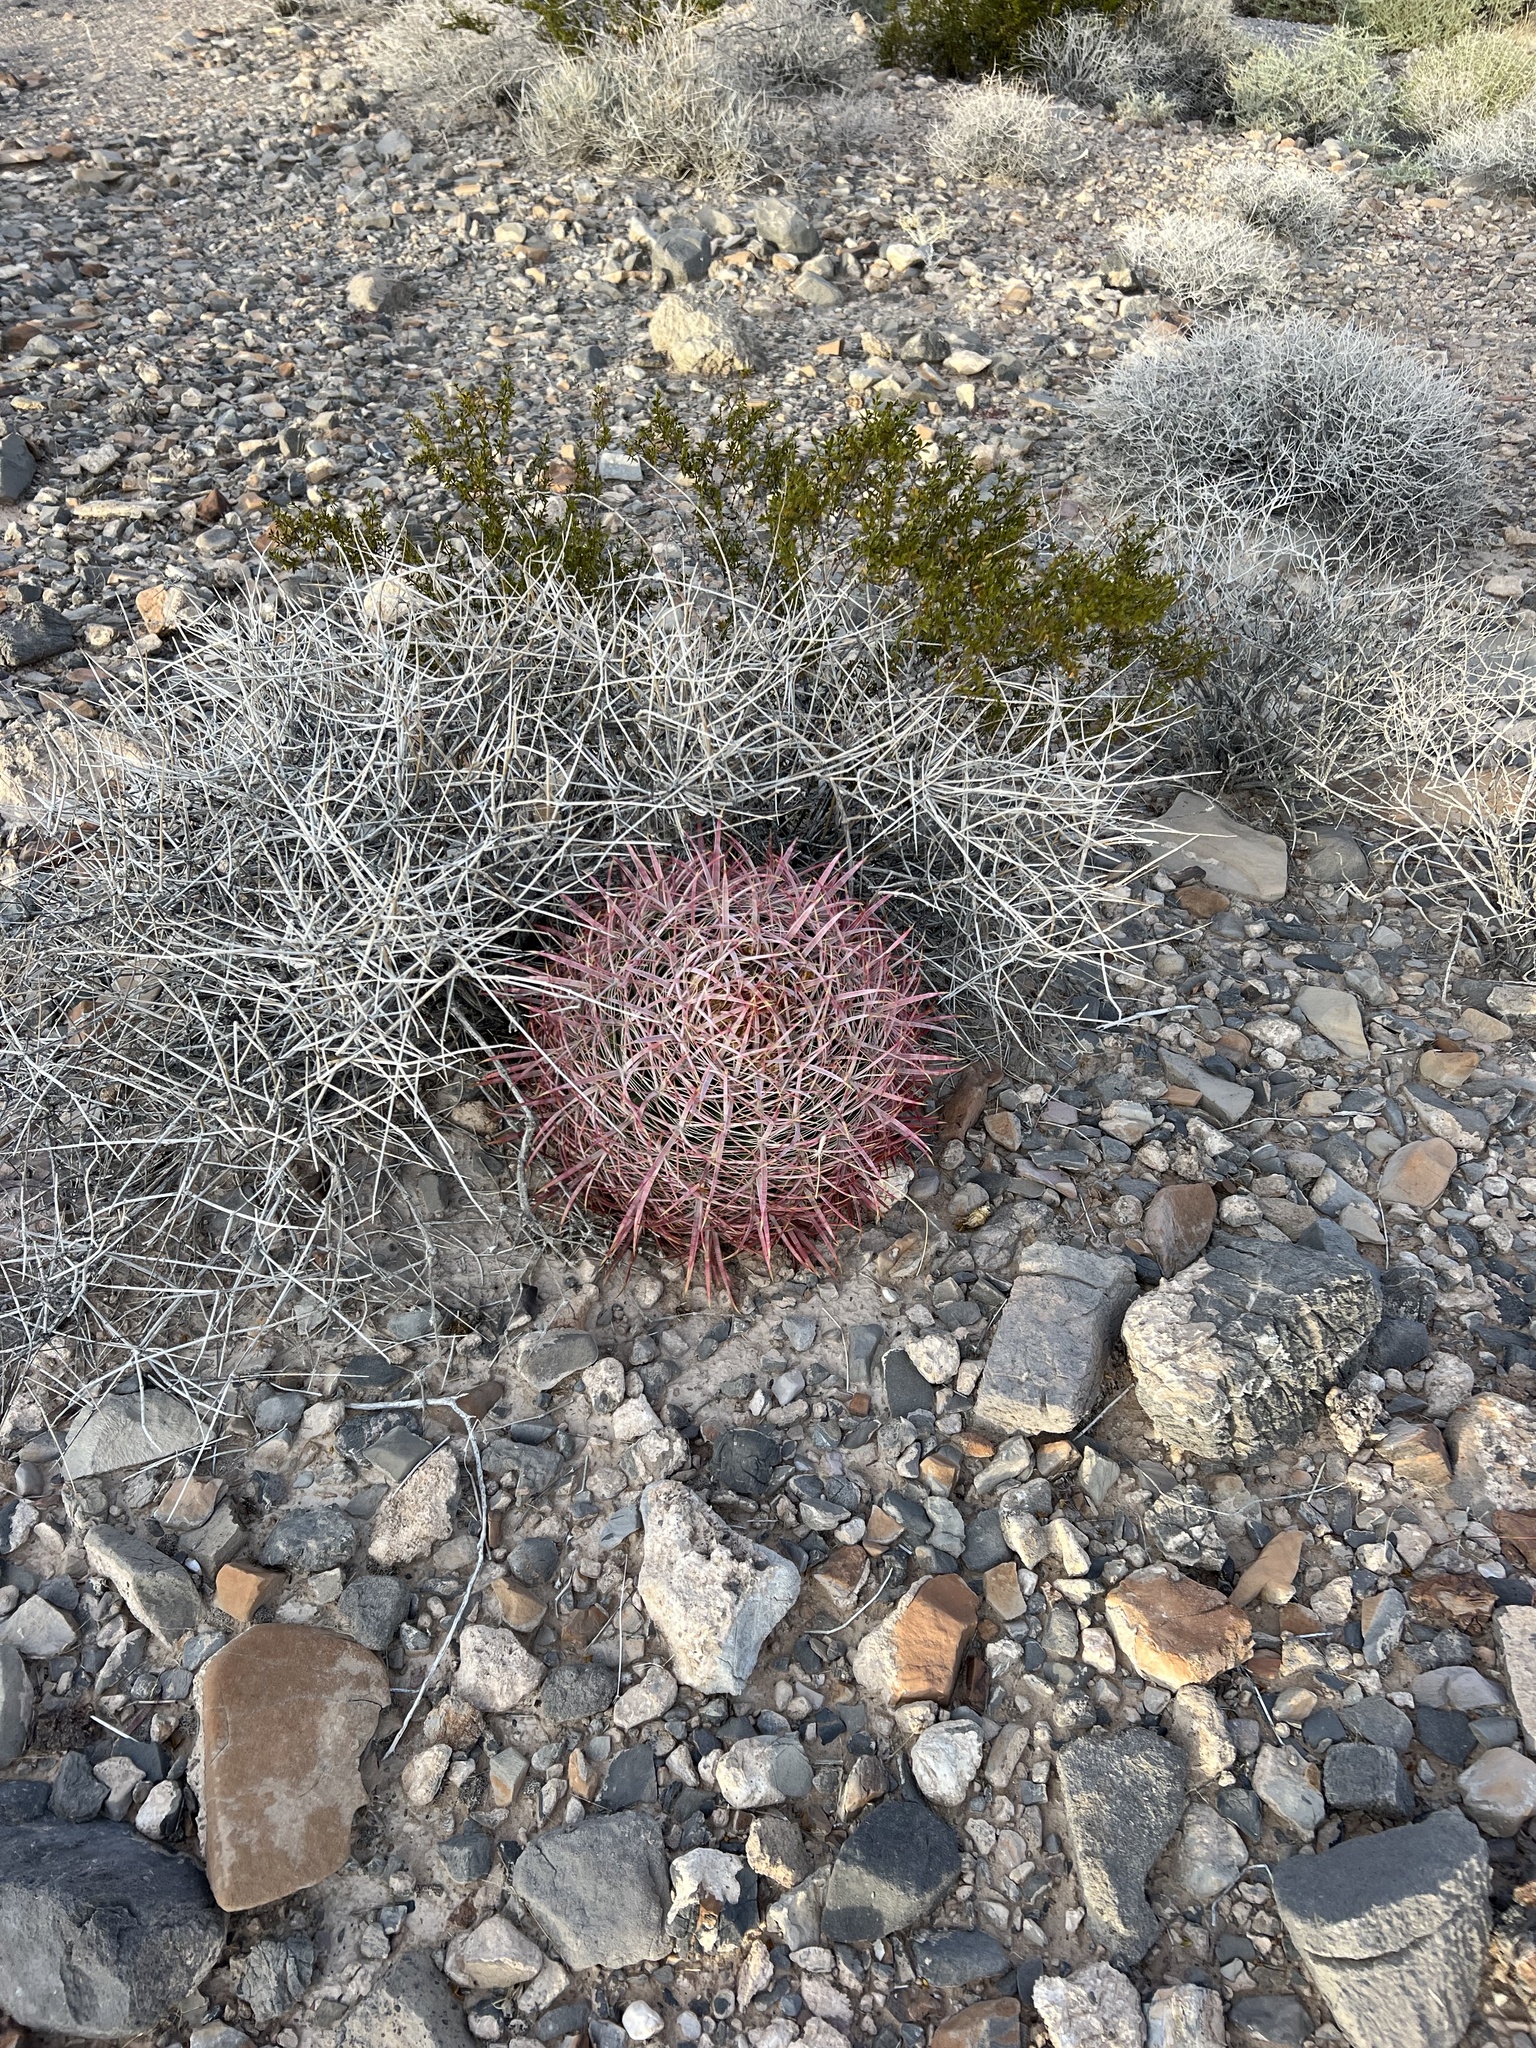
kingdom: Plantae
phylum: Tracheophyta
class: Magnoliopsida
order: Caryophyllales
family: Cactaceae
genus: Ferocactus
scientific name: Ferocactus cylindraceus
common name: California barrel cactus
